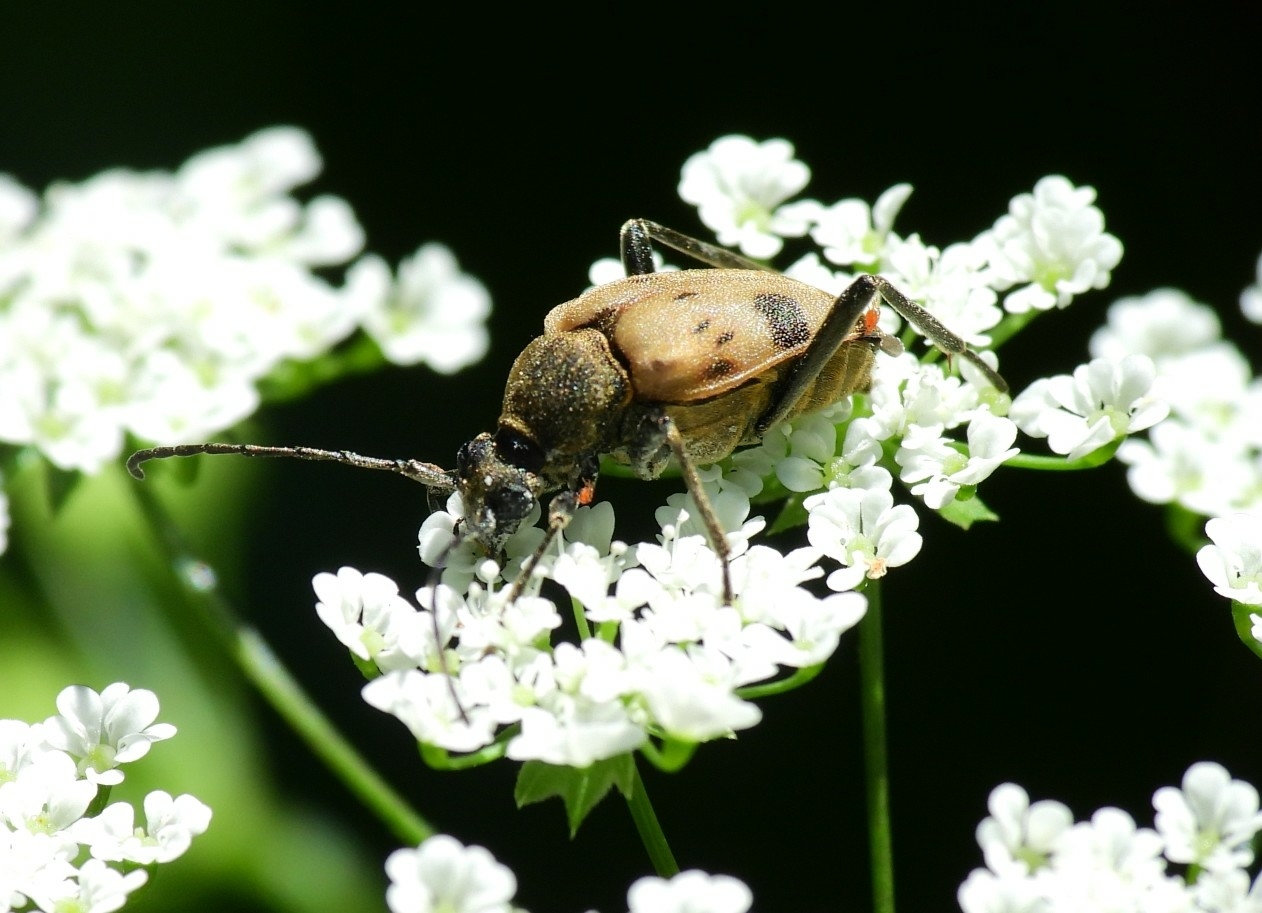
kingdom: Animalia
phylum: Arthropoda
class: Insecta
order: Coleoptera
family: Cerambycidae
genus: Pachytodes
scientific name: Pachytodes cerambyciformis
